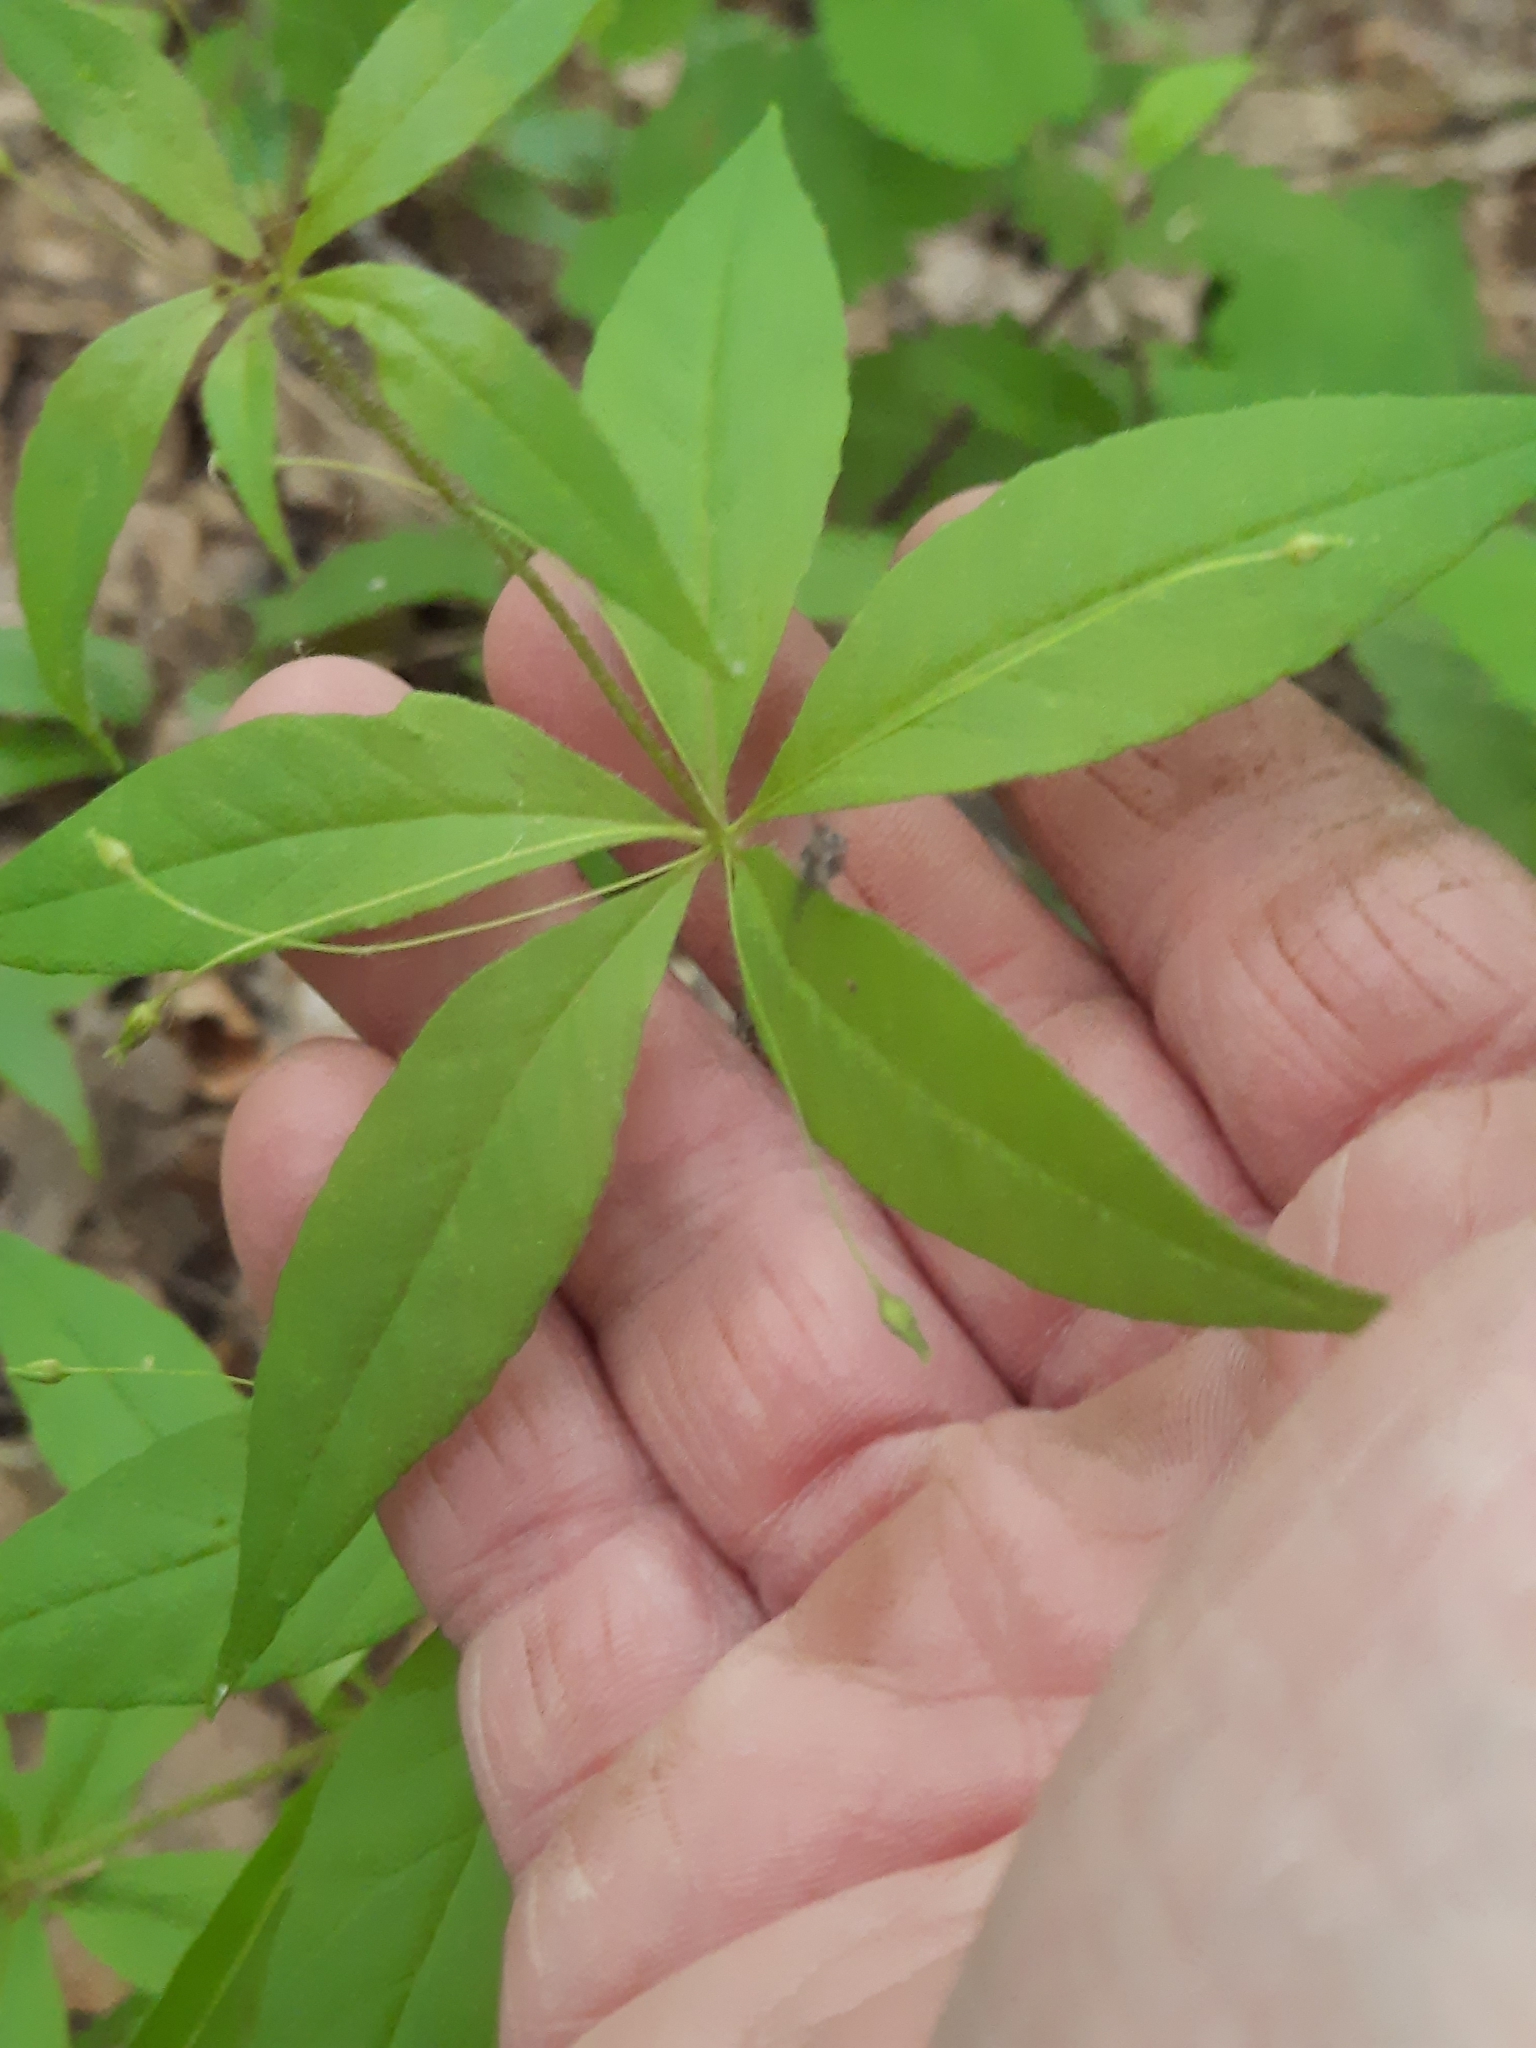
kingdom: Plantae
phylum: Tracheophyta
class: Magnoliopsida
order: Ericales
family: Primulaceae
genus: Lysimachia
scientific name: Lysimachia quadrifolia
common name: Whorled loosestrife
